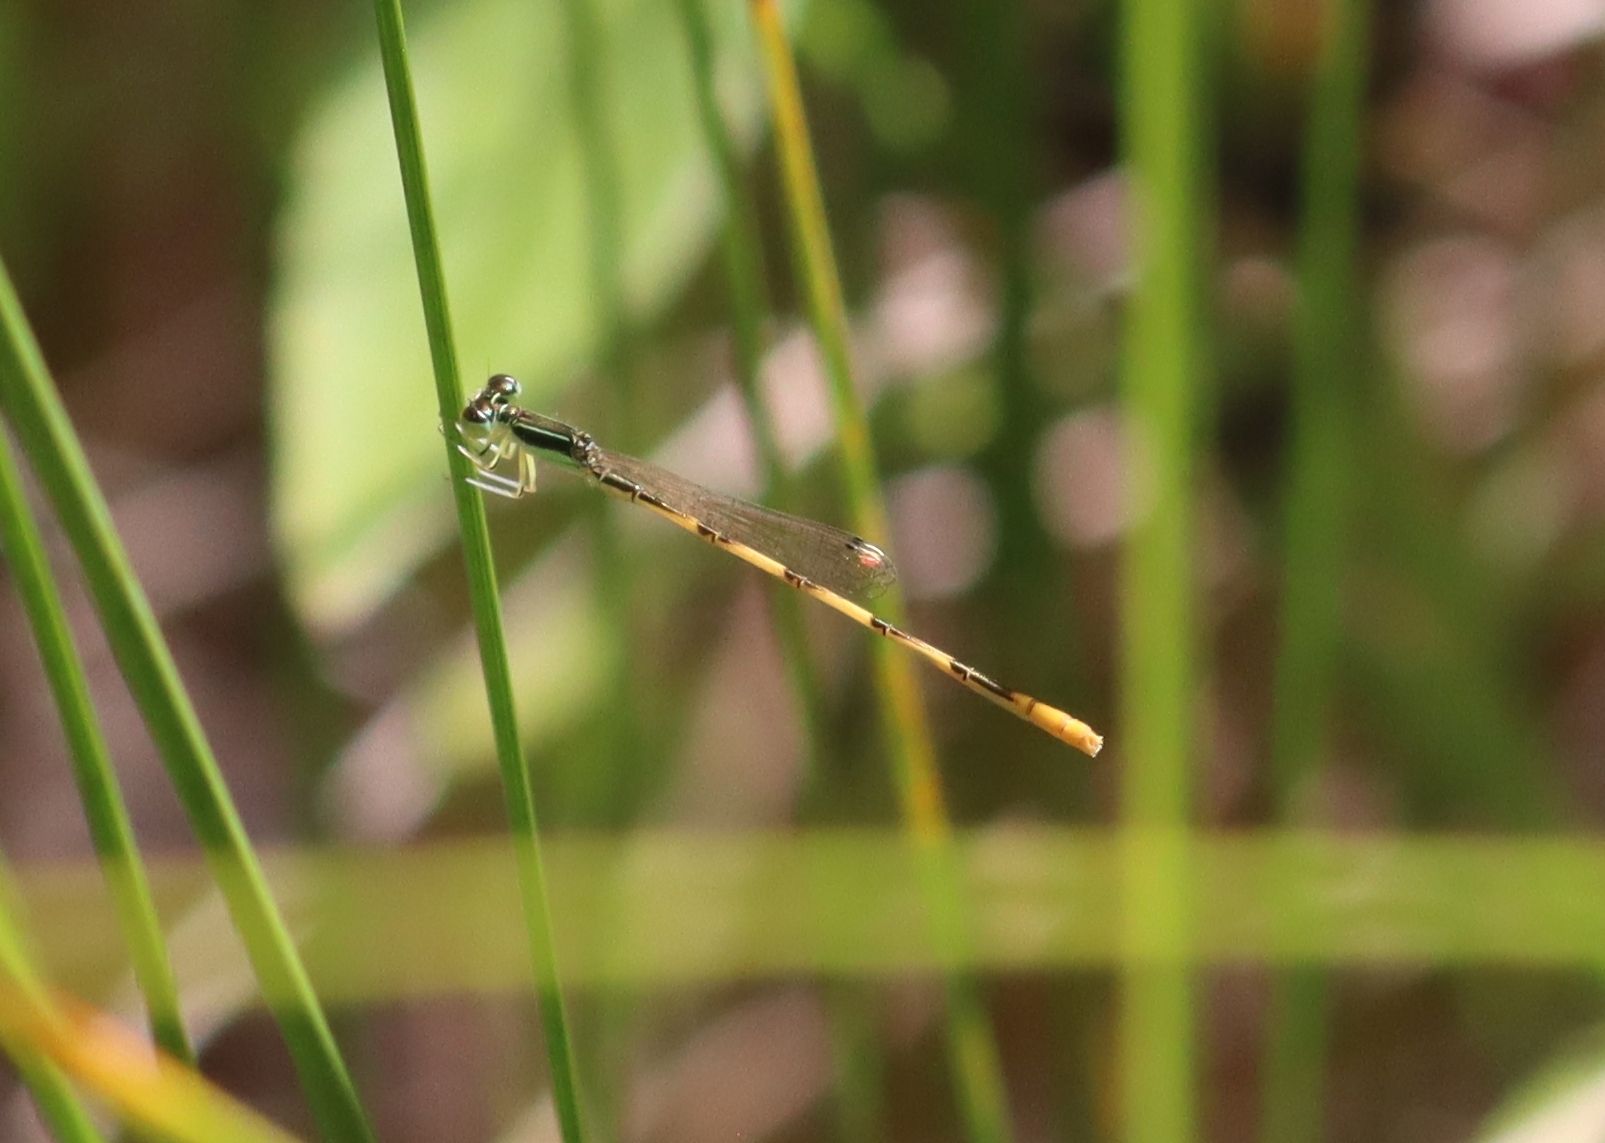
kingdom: Animalia
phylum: Arthropoda
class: Insecta
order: Odonata
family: Coenagrionidae
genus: Ischnura
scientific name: Ischnura hastata
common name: Citrine forktail
